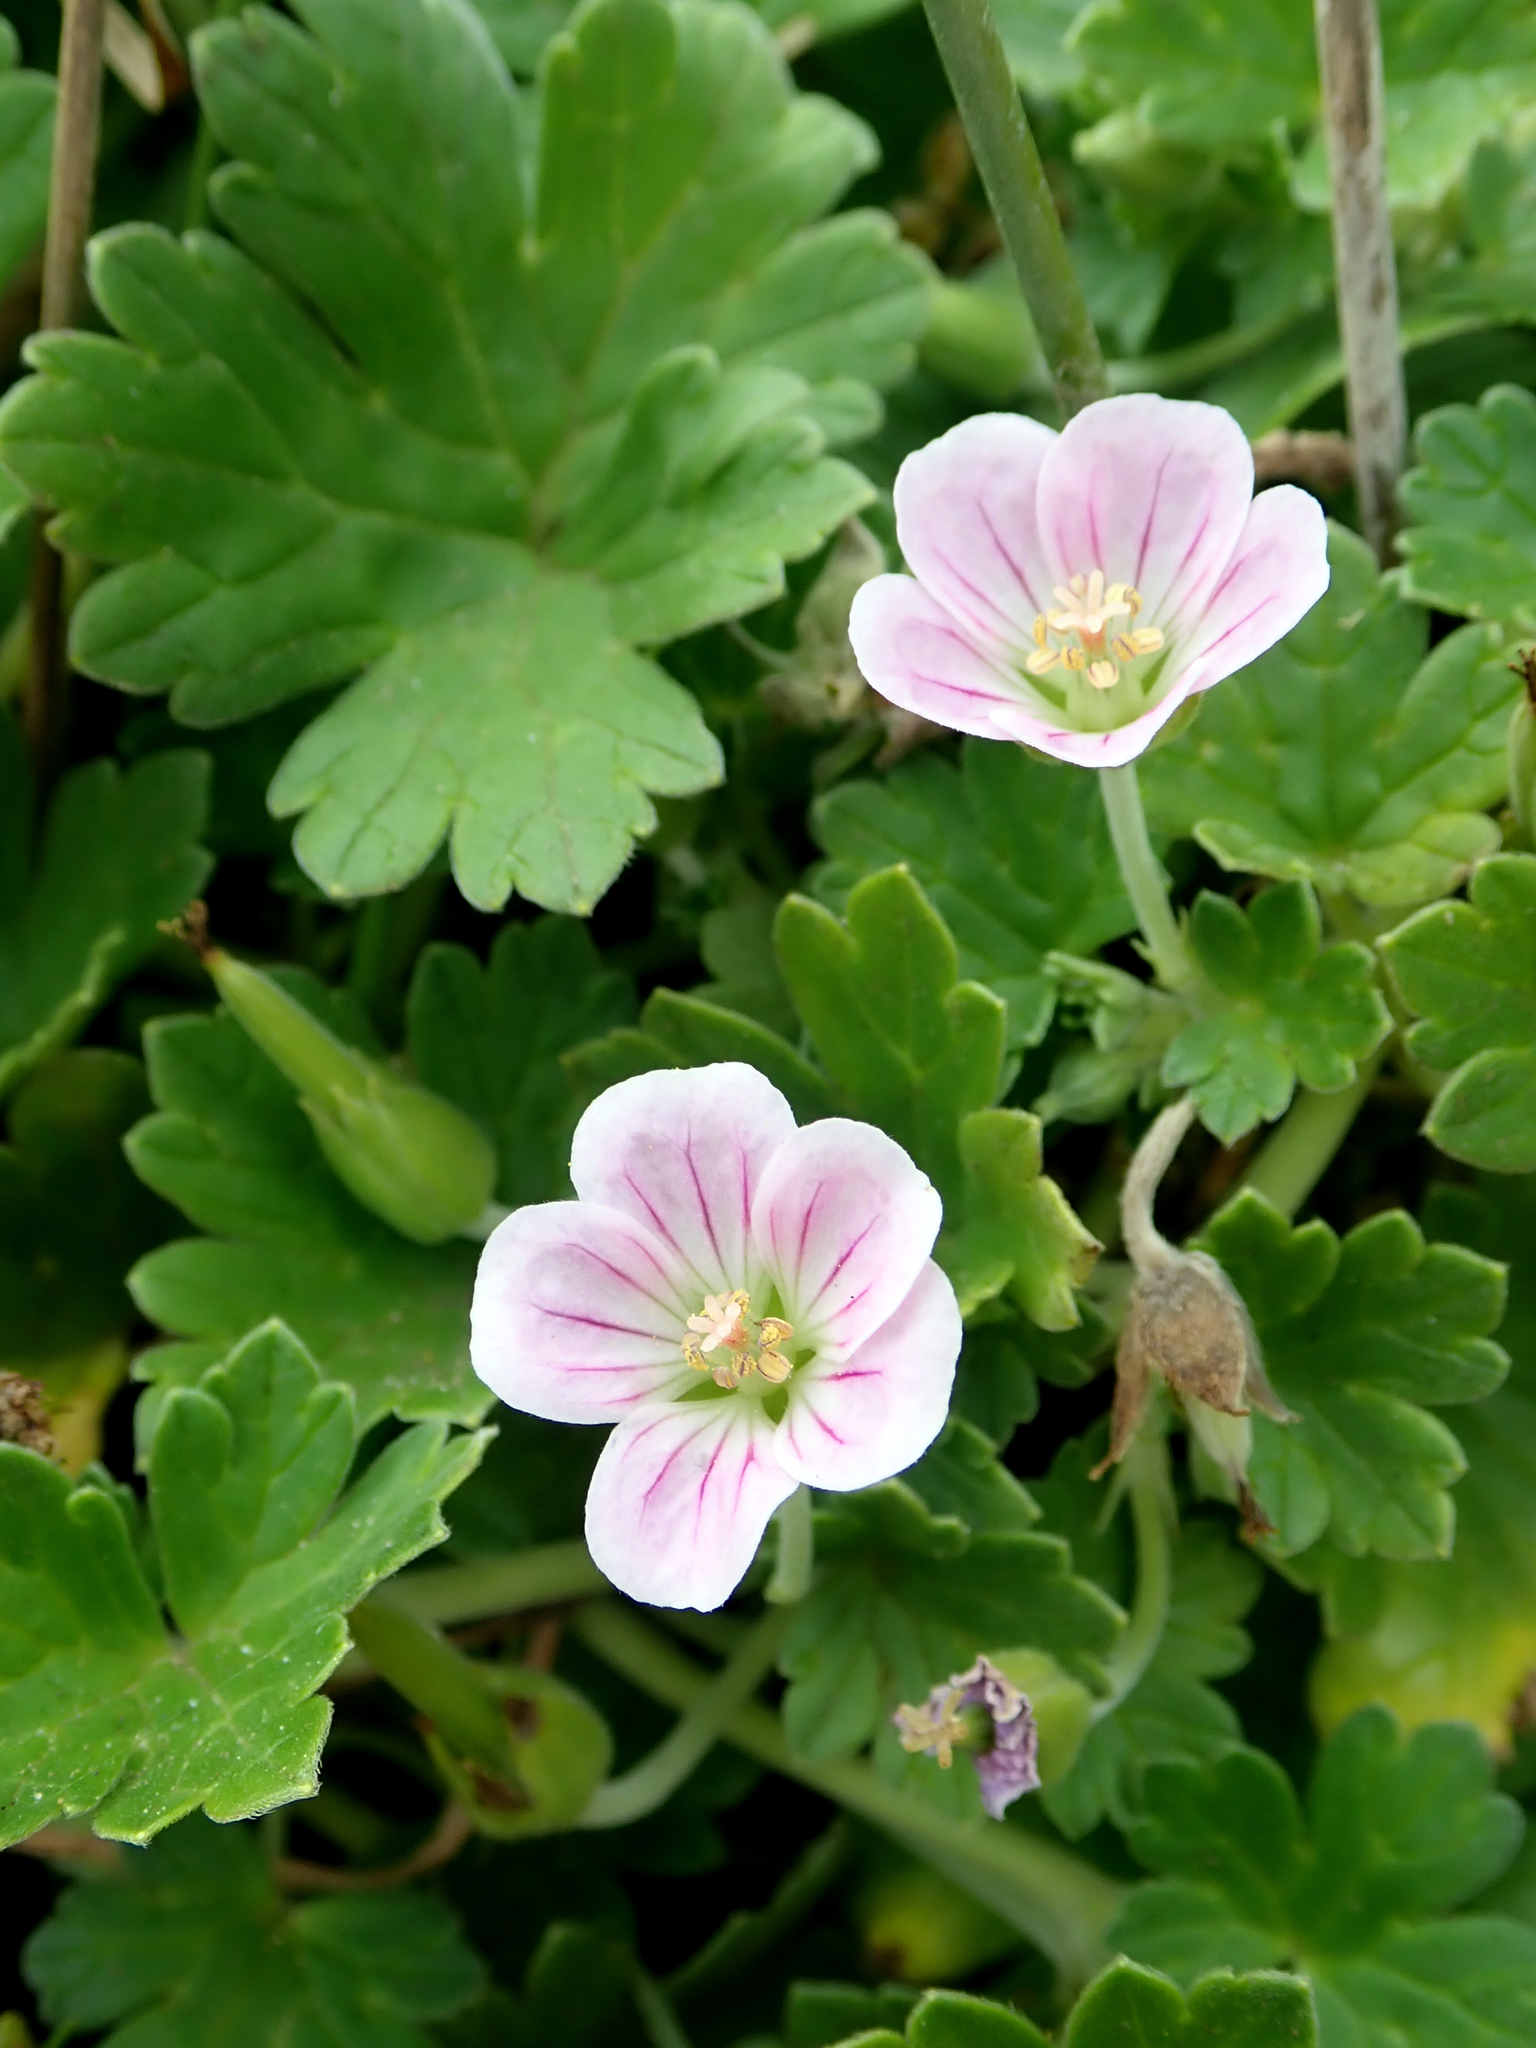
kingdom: Plantae
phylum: Tracheophyta
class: Magnoliopsida
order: Geraniales
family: Geraniaceae
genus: Geranium
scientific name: Geranium traversii
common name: Cranesbill
